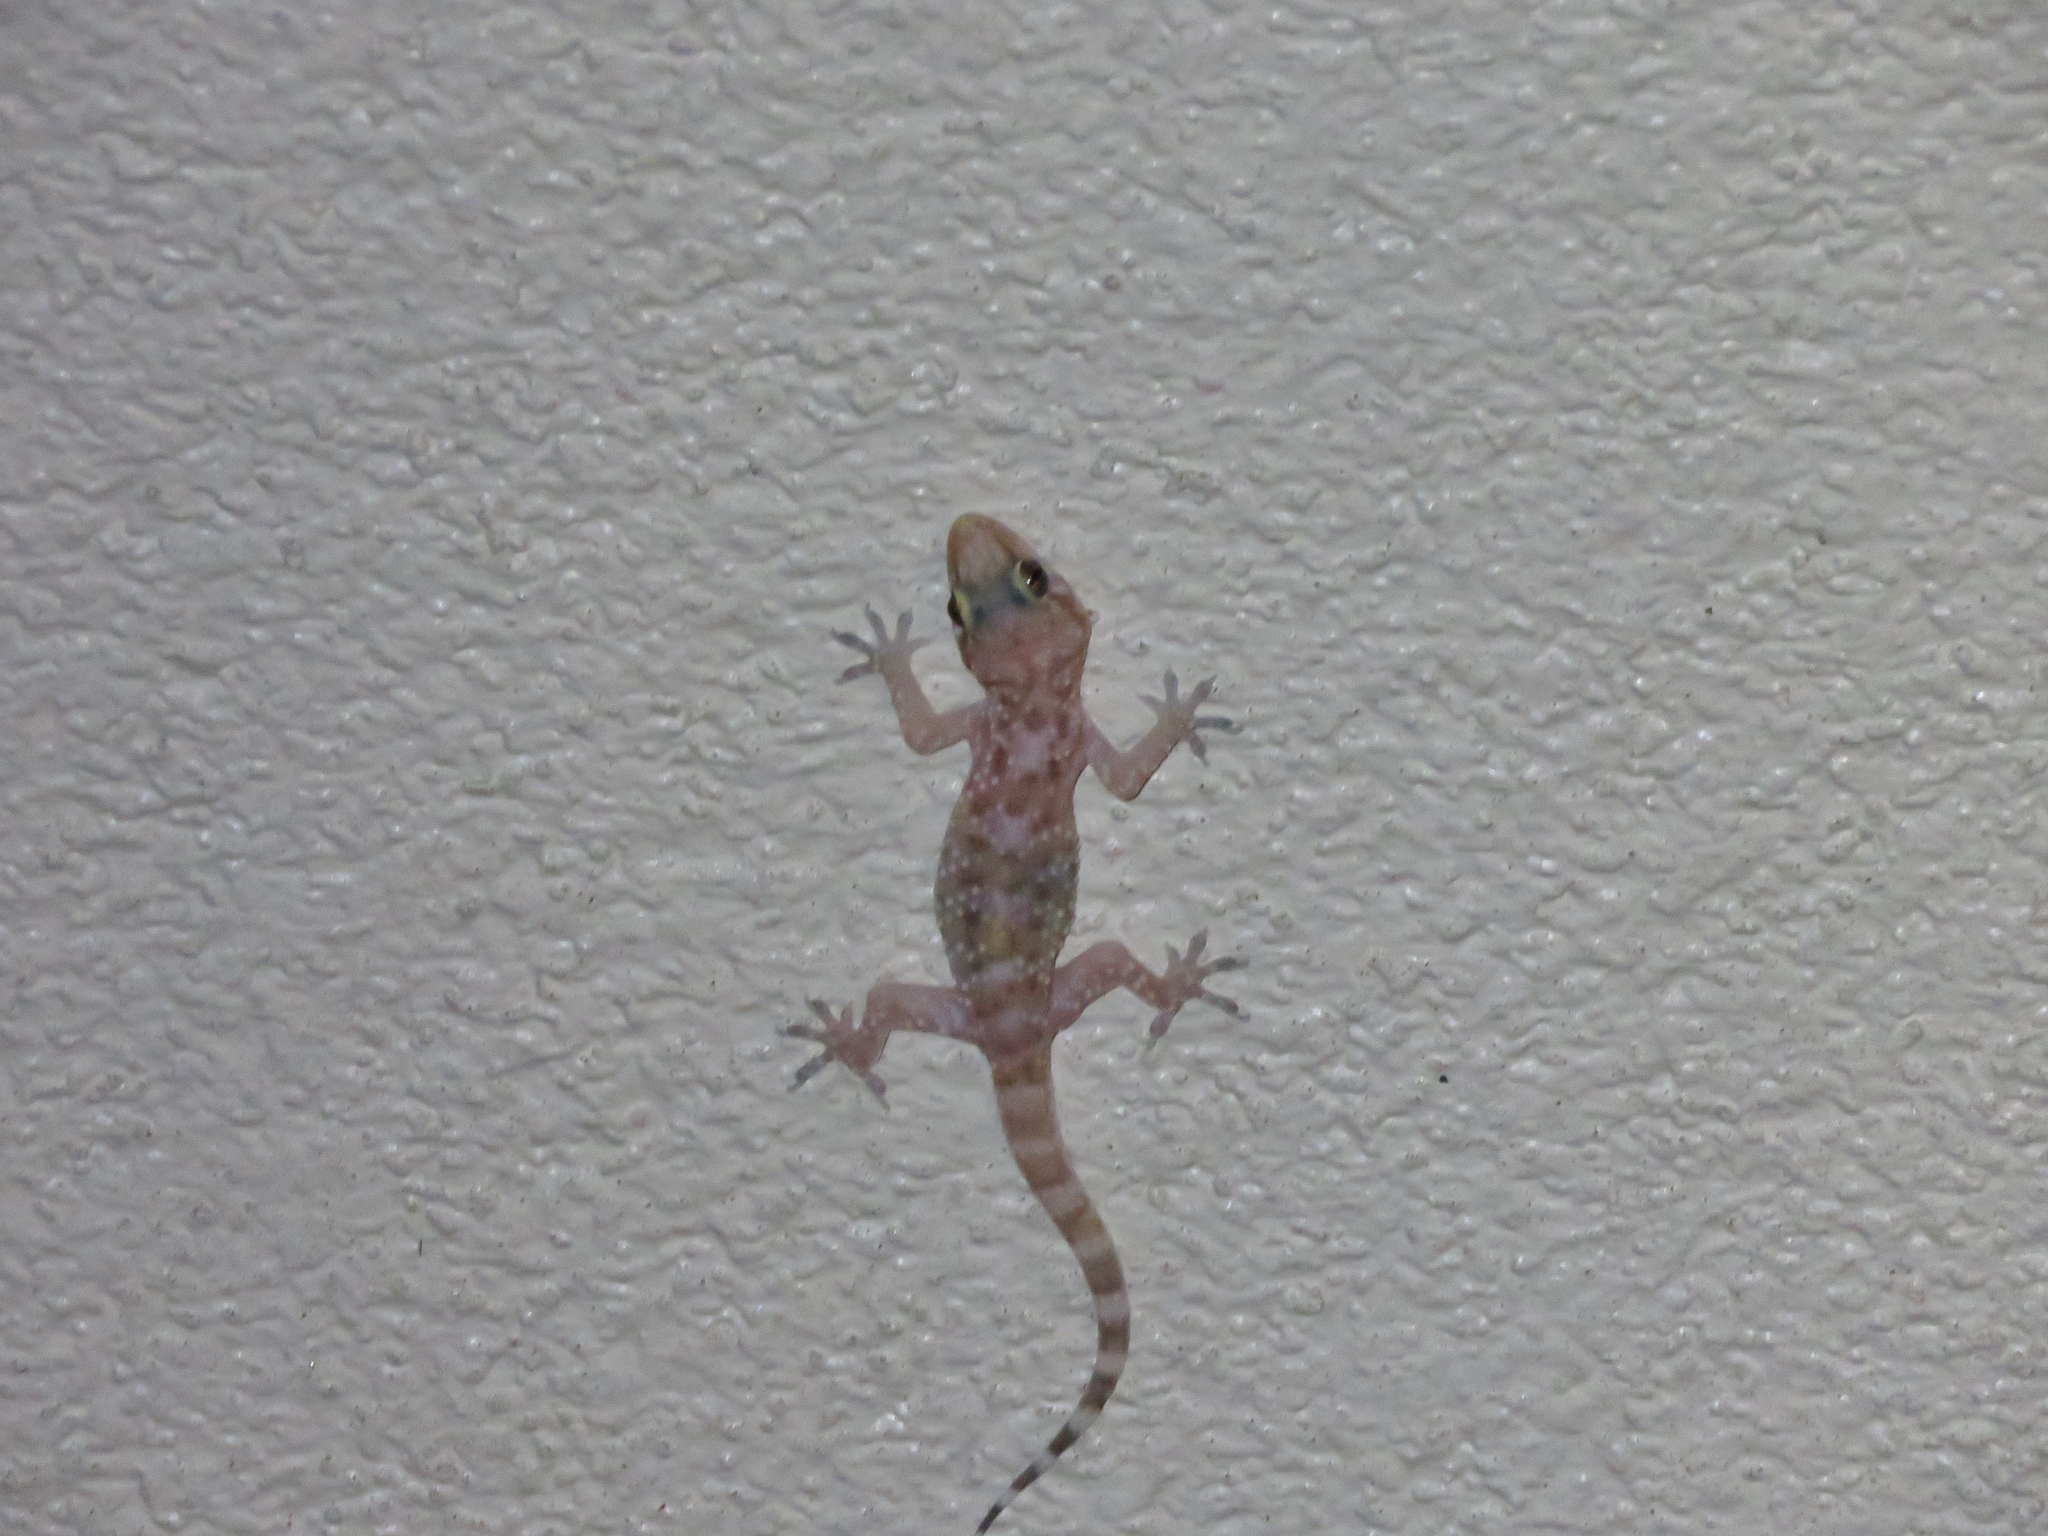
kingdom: Animalia
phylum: Chordata
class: Squamata
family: Gekkonidae
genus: Hemidactylus
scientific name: Hemidactylus turcicus
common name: Turkish gecko
